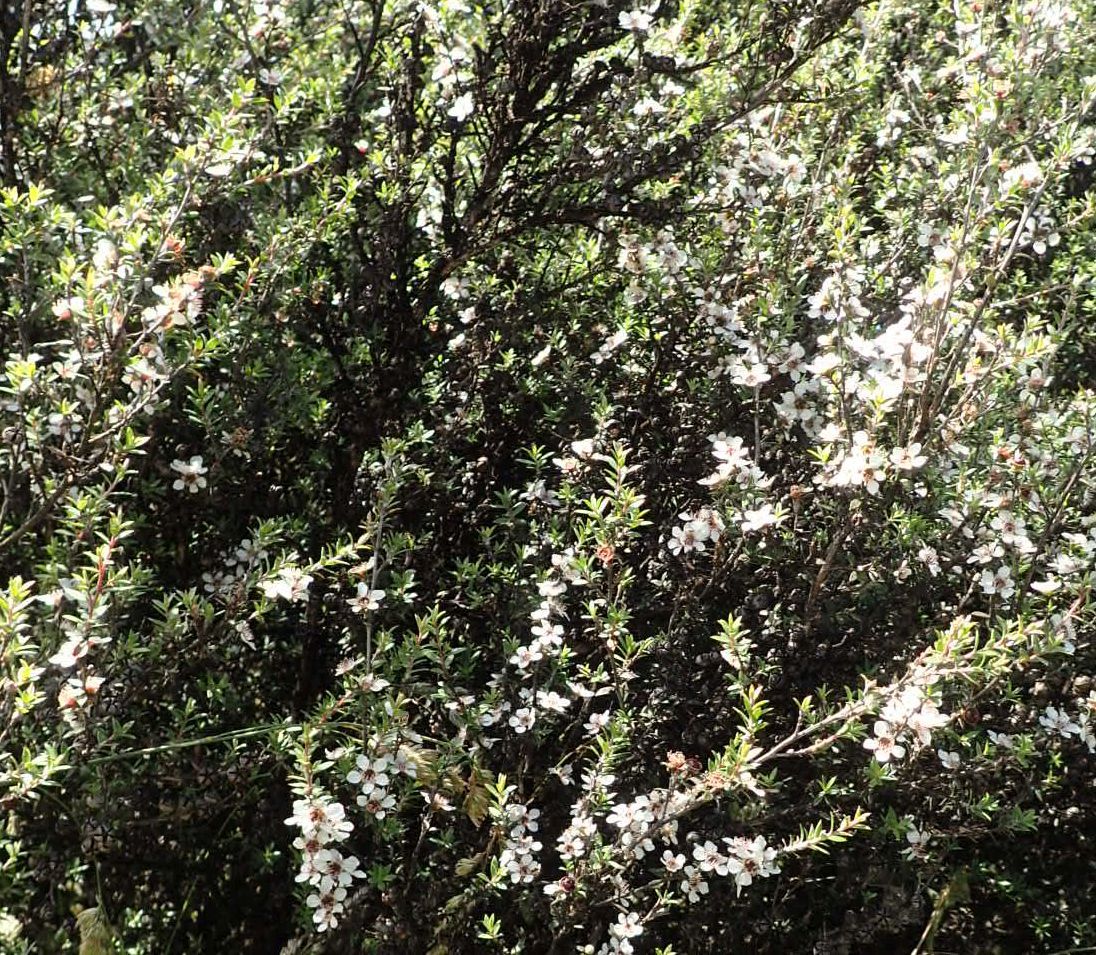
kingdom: Plantae
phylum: Tracheophyta
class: Magnoliopsida
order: Myrtales
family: Myrtaceae
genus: Leptospermum
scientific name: Leptospermum scoparium
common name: Broom tea-tree
